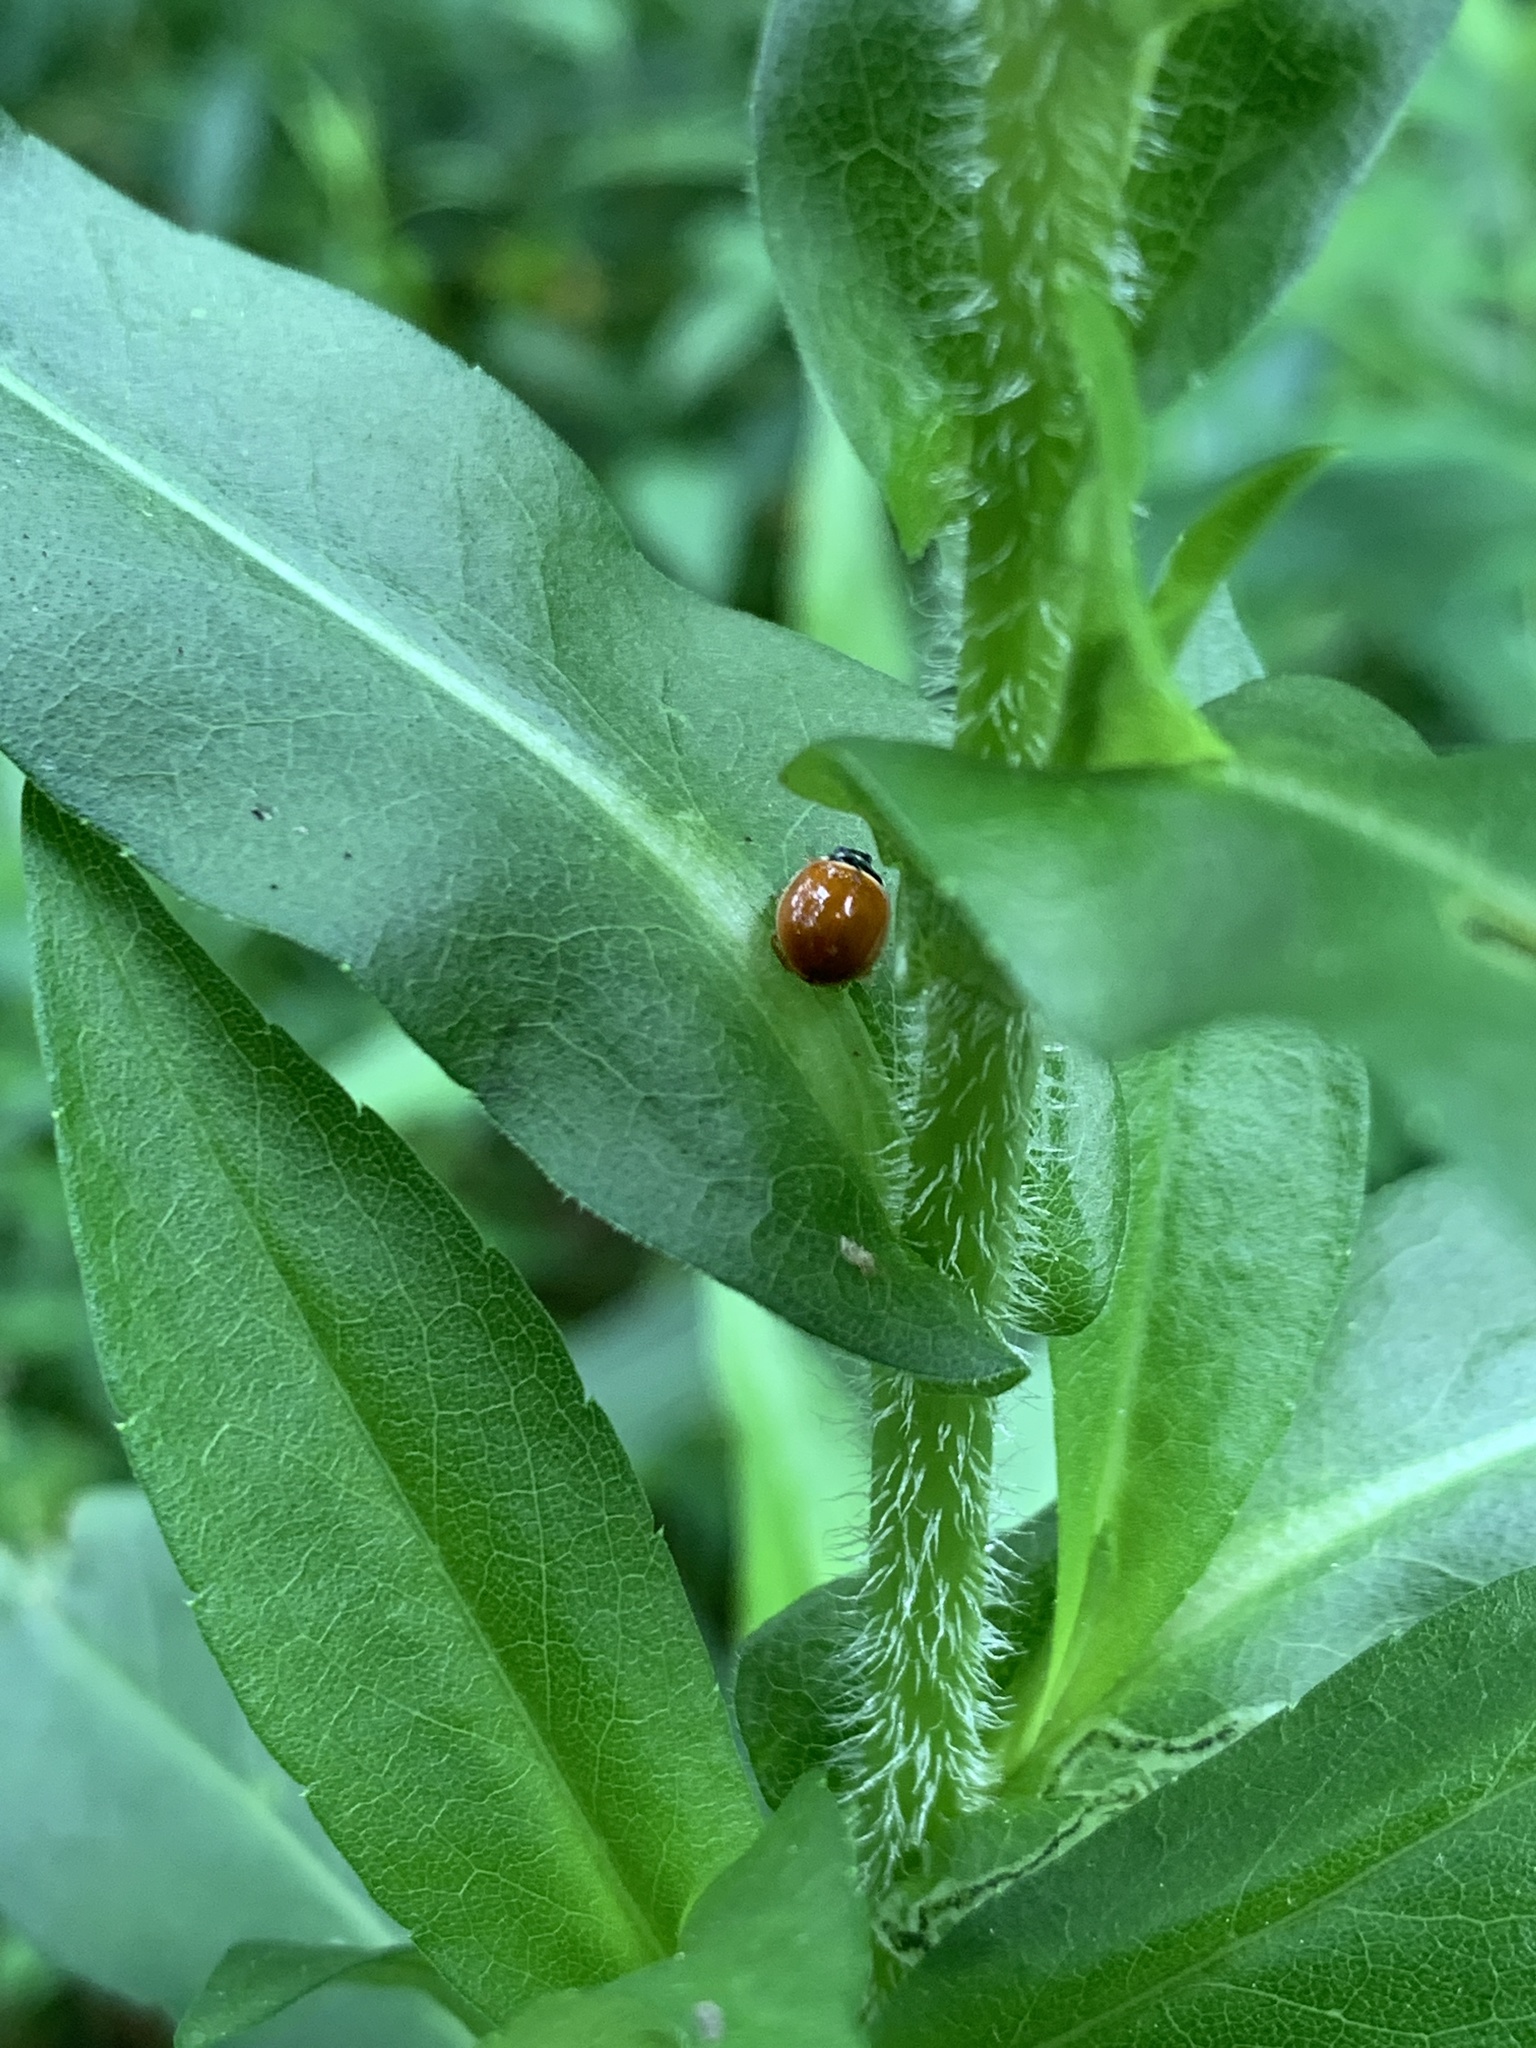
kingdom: Animalia
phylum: Arthropoda
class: Insecta
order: Coleoptera
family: Coccinellidae
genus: Cycloneda
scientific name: Cycloneda munda
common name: Polished lady beetle
